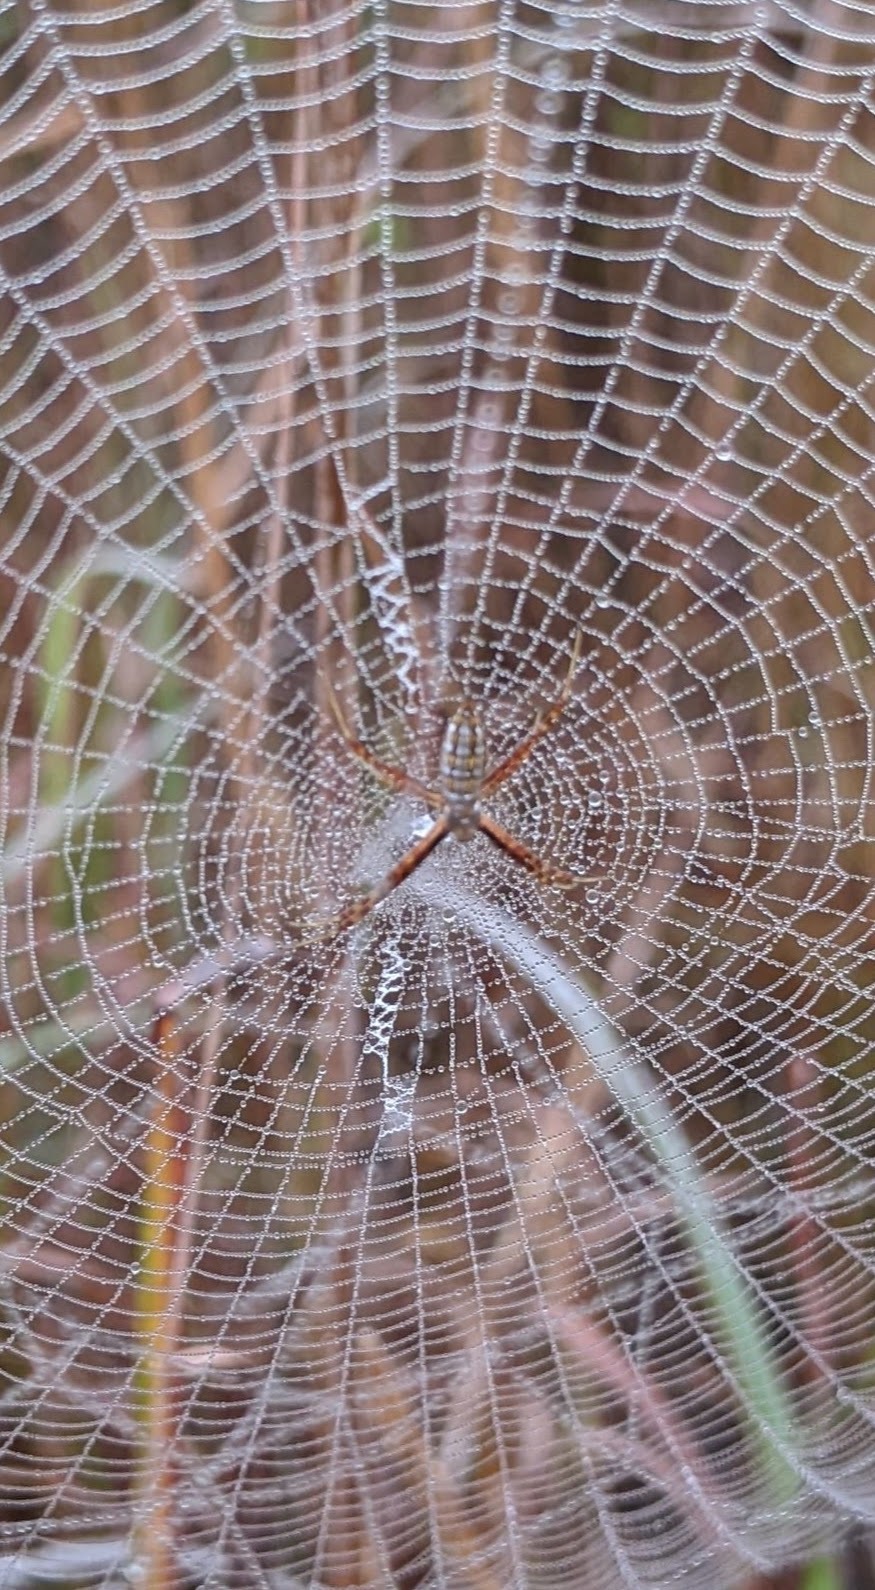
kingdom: Animalia
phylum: Arthropoda
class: Arachnida
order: Araneae
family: Araneidae
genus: Argiope
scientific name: Argiope trifasciata
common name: Banded garden spider
